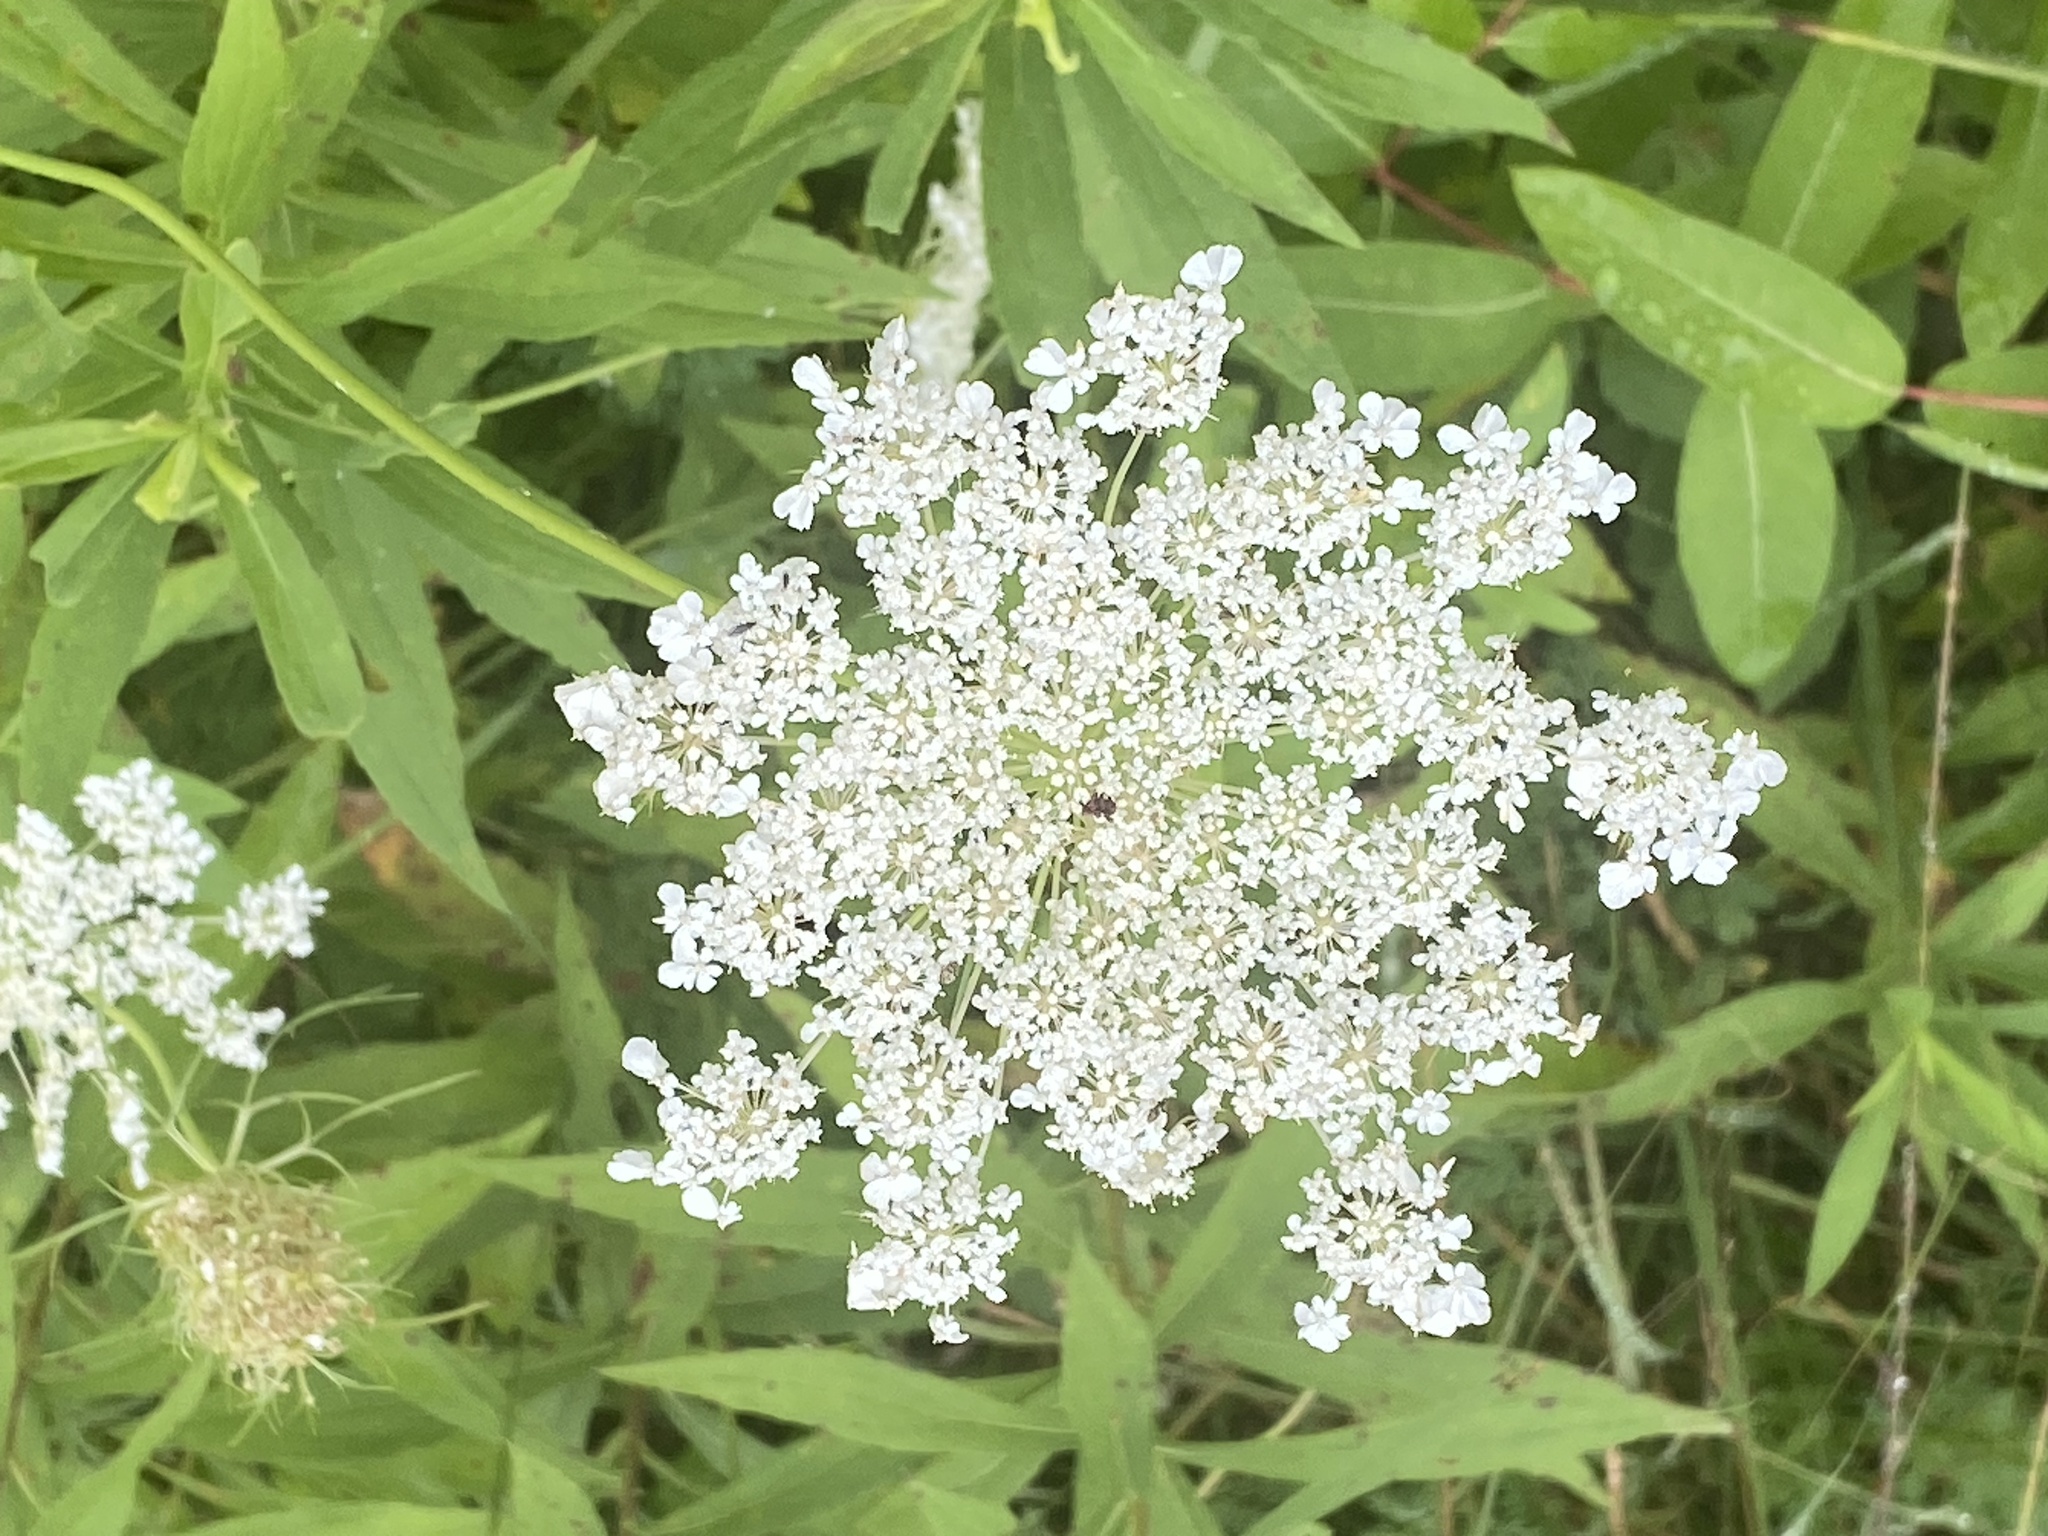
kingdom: Plantae
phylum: Tracheophyta
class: Magnoliopsida
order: Apiales
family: Apiaceae
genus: Daucus
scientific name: Daucus carota
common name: Wild carrot
